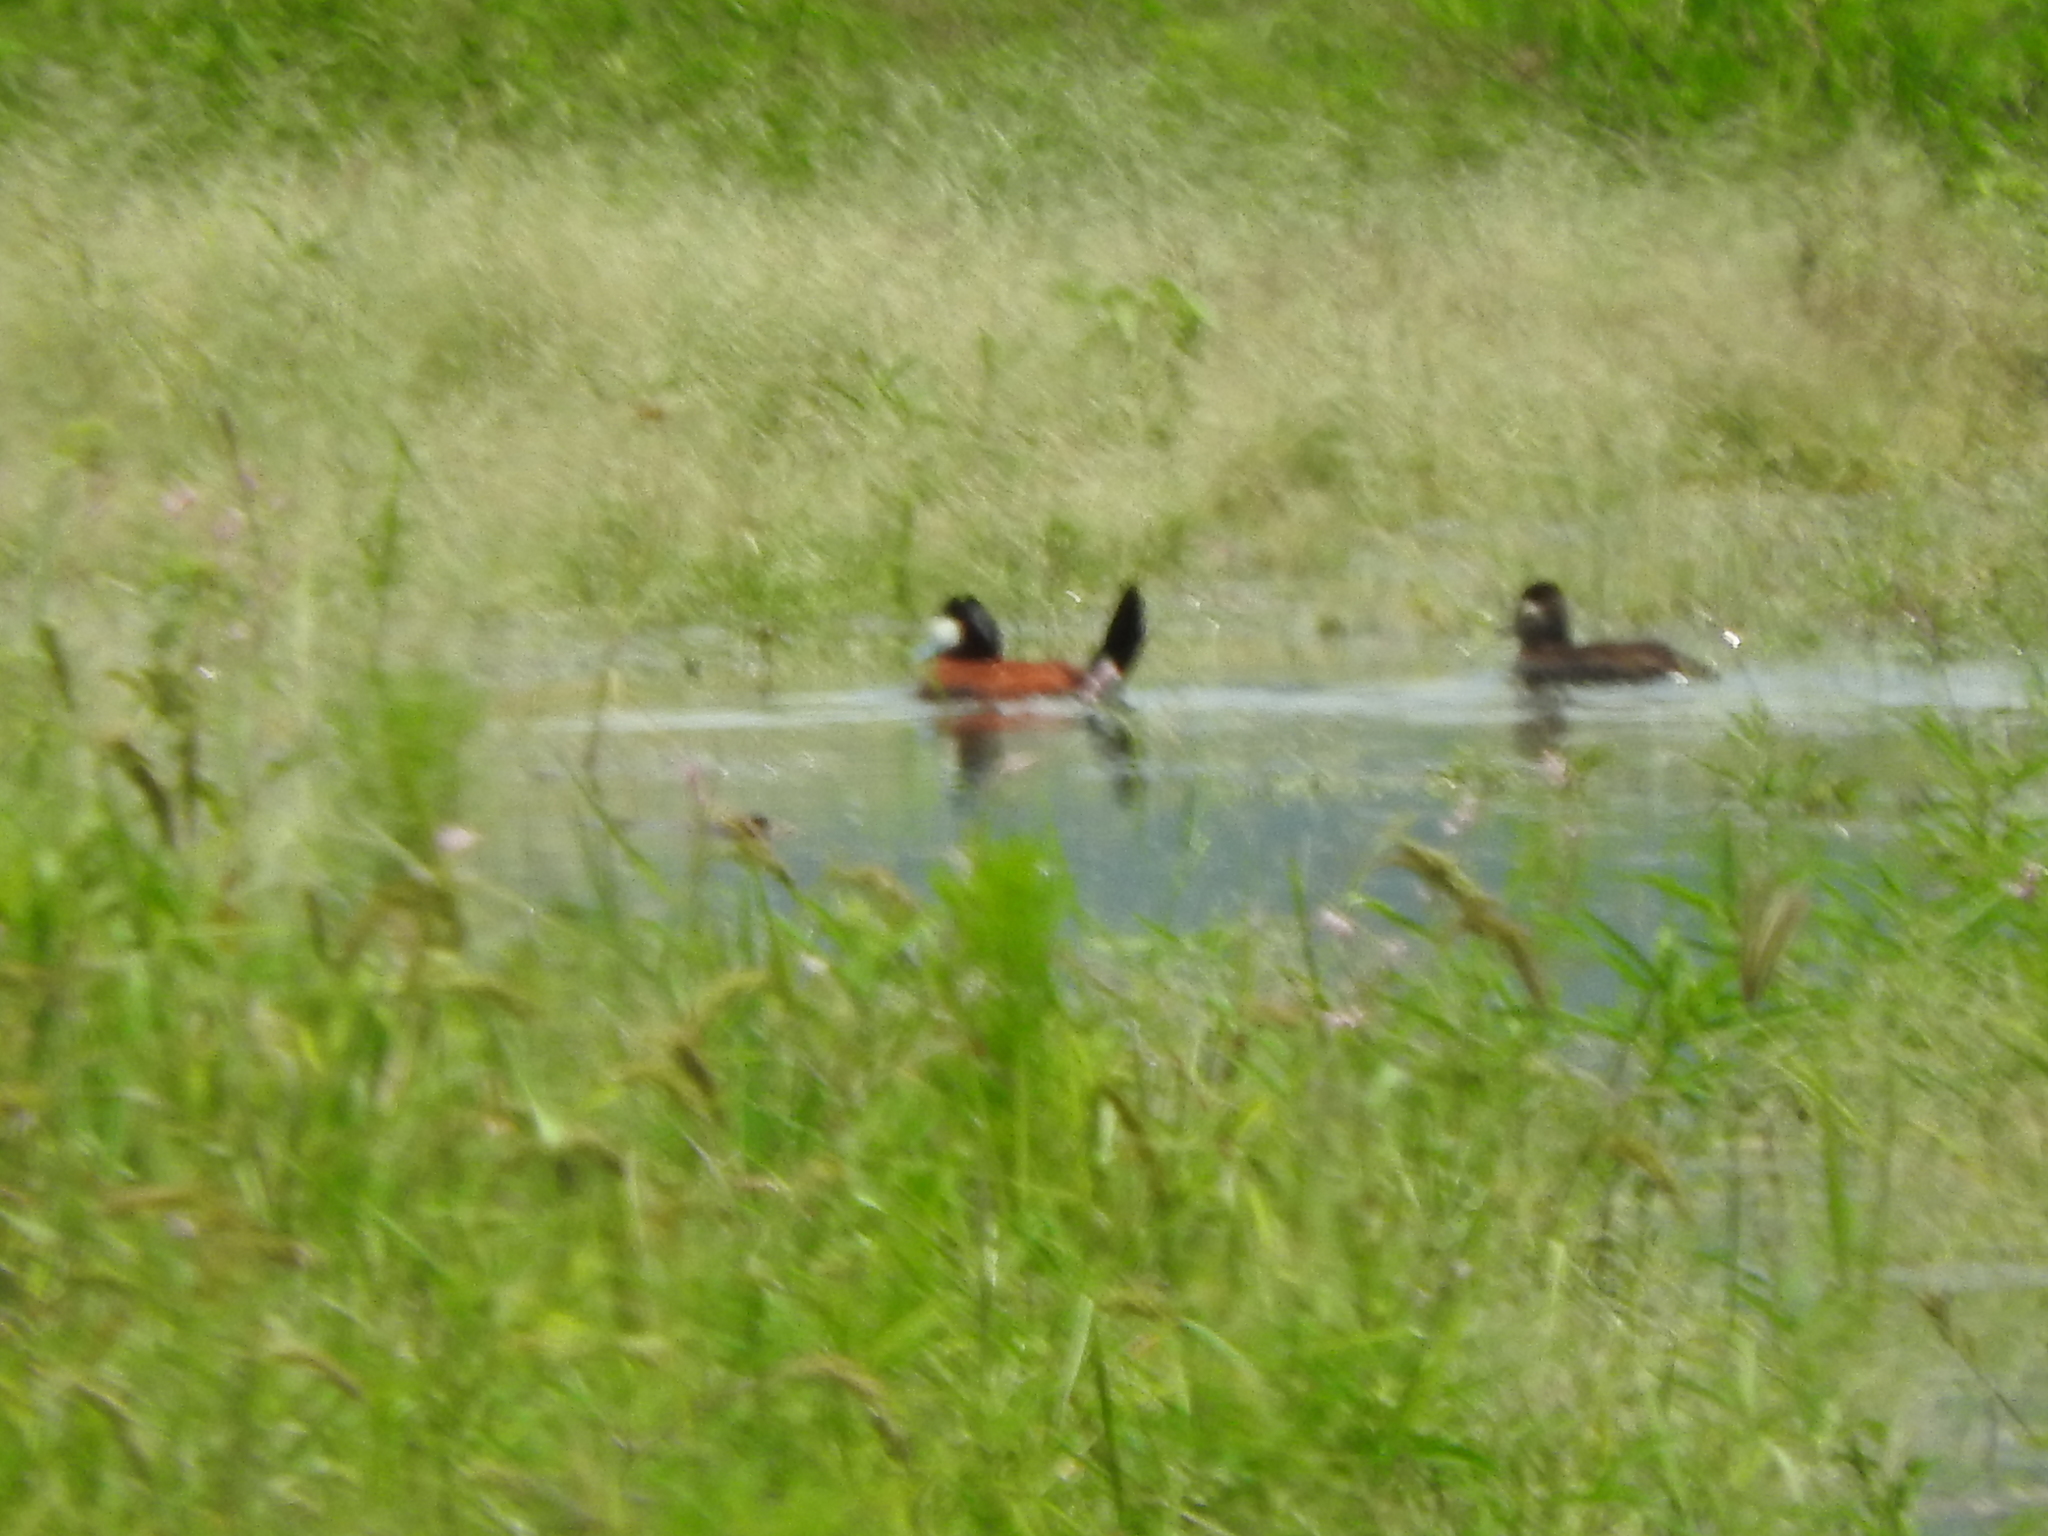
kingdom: Animalia
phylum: Chordata
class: Aves
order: Anseriformes
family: Anatidae
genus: Oxyura
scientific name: Oxyura jamaicensis
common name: Ruddy duck
